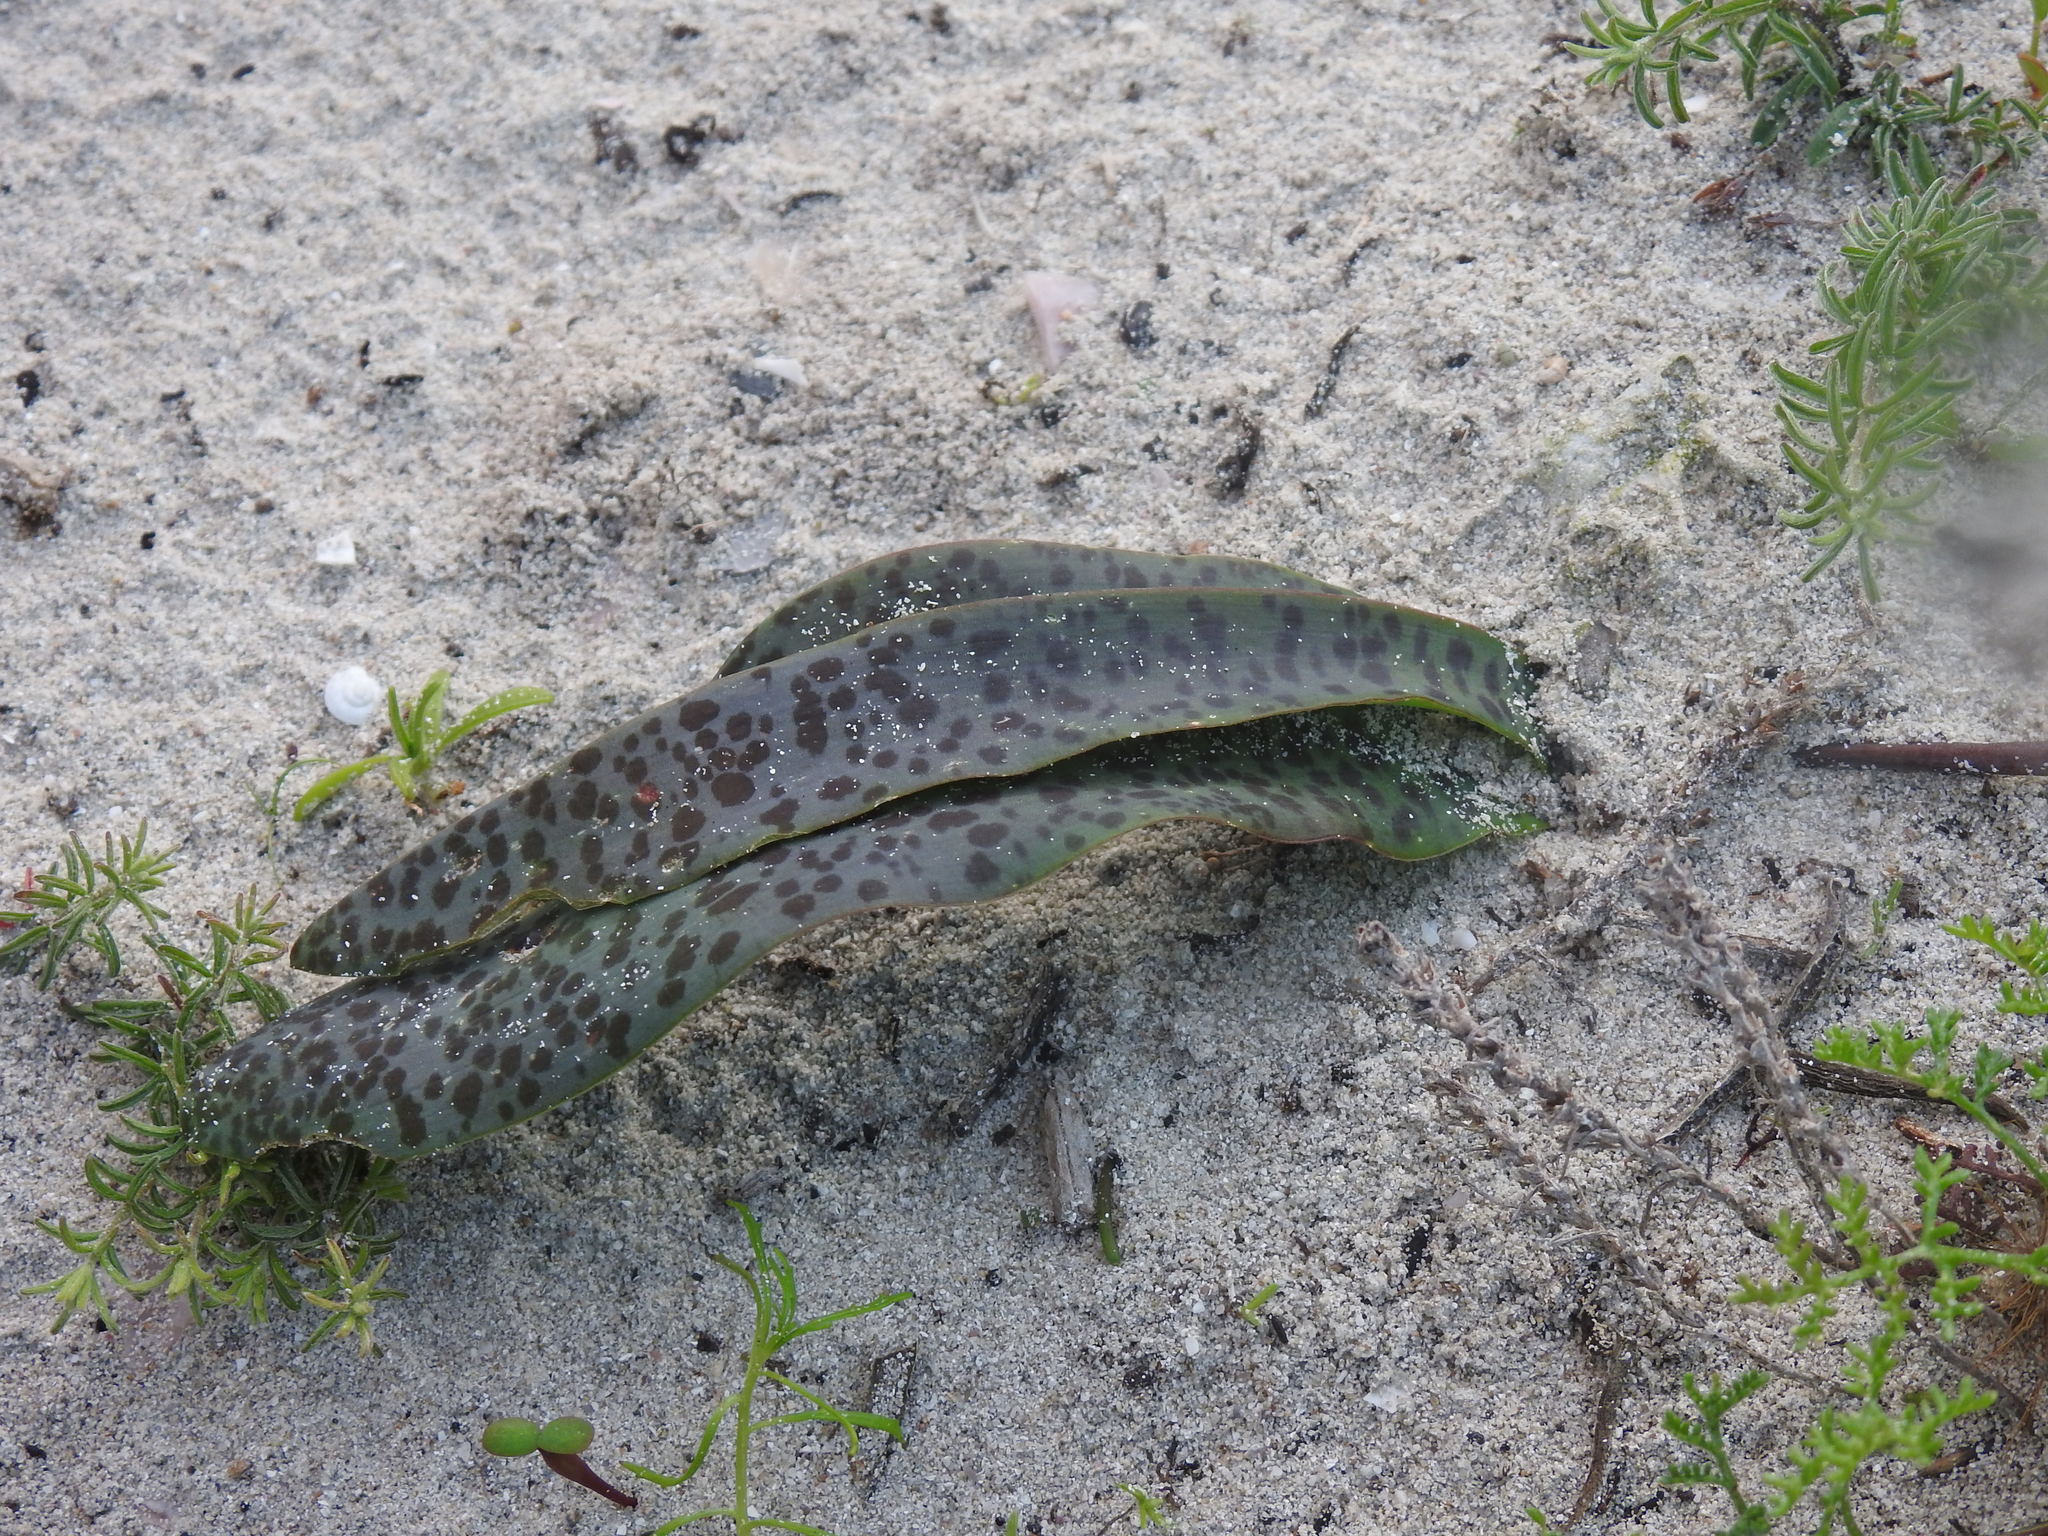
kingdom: Plantae
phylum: Tracheophyta
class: Liliopsida
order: Asparagales
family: Asparagaceae
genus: Lachenalia
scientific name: Lachenalia punctata
